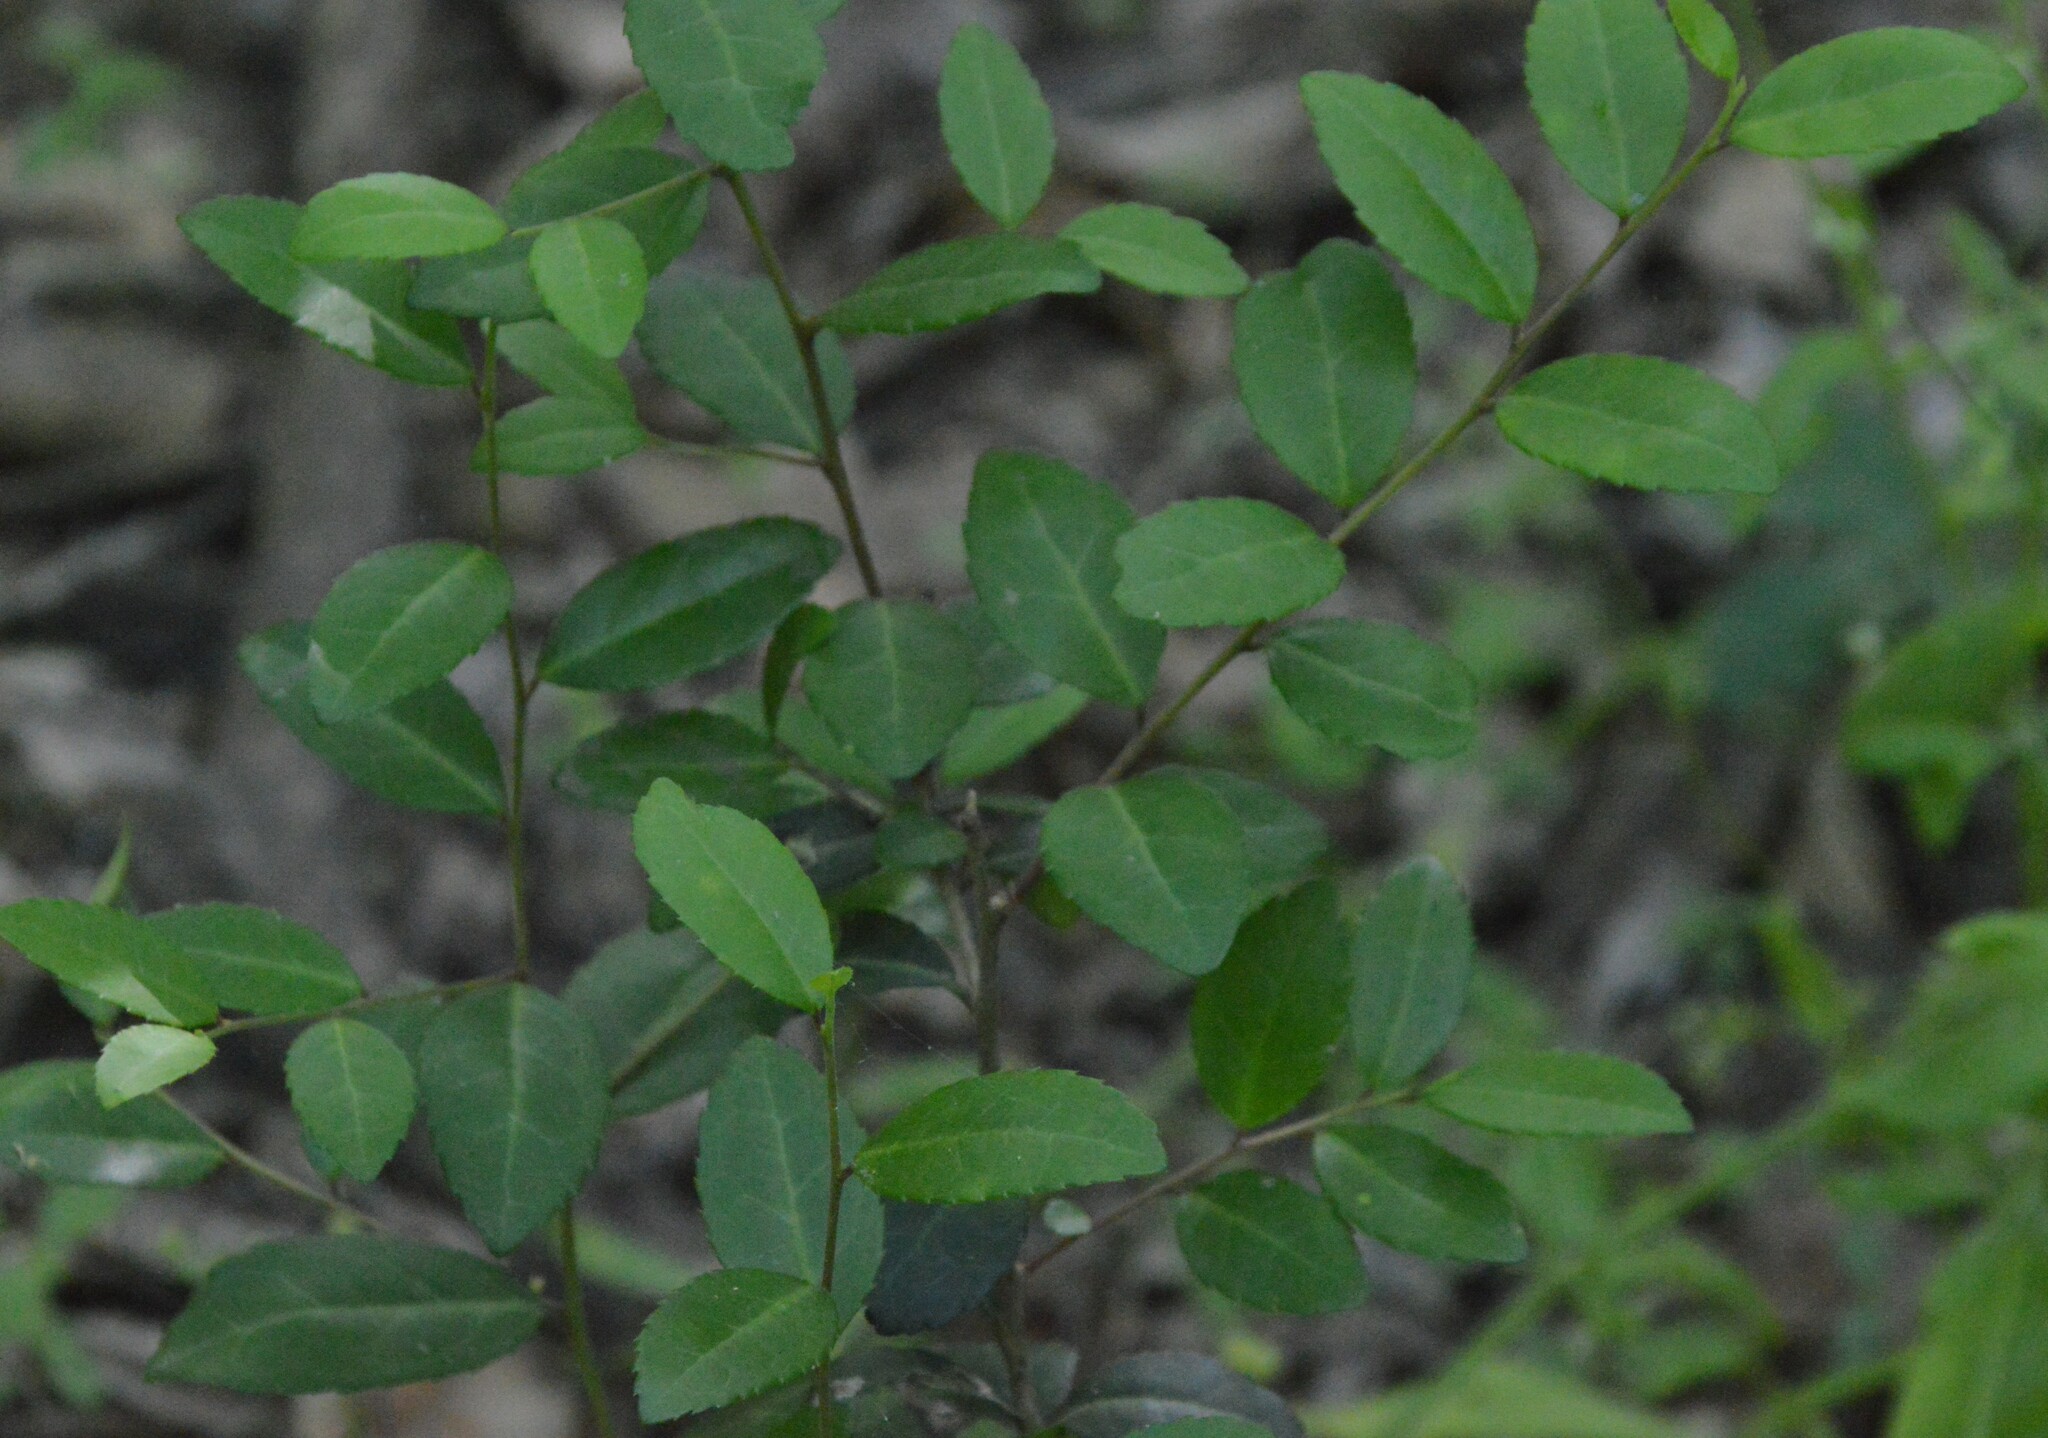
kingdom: Plantae
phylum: Tracheophyta
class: Magnoliopsida
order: Aquifoliales
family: Aquifoliaceae
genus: Ilex
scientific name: Ilex vomitoria
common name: Yaupon holly
